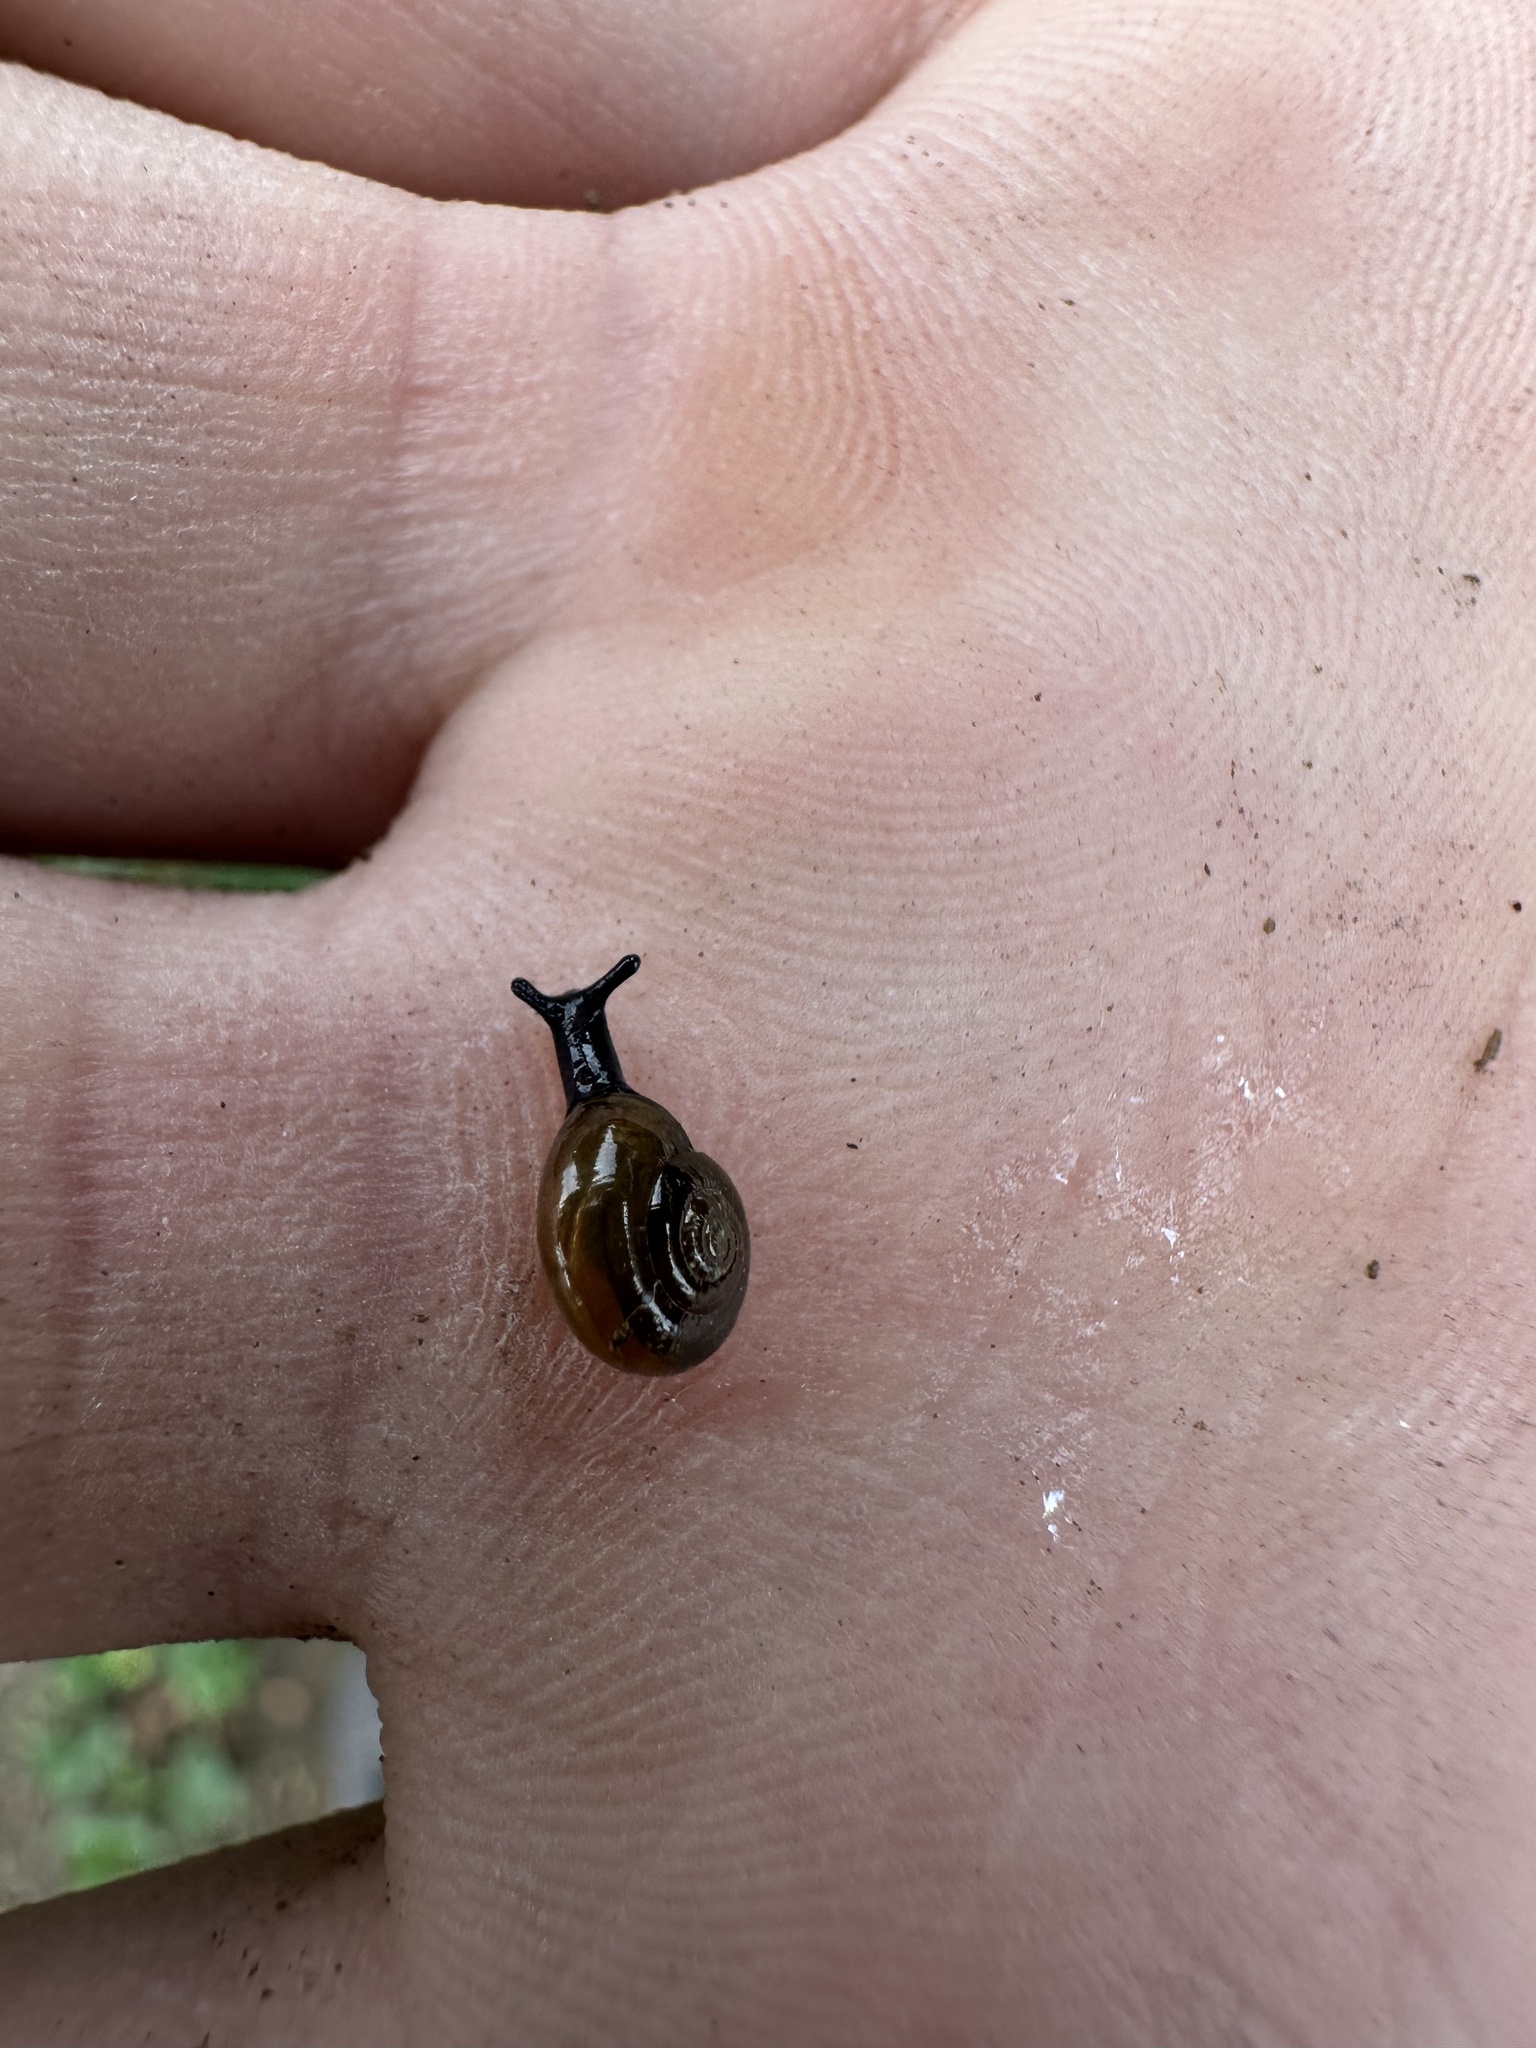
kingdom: Animalia
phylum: Mollusca
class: Gastropoda
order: Stylommatophora
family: Oxychilidae
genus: Oxychilus
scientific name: Oxychilus alliarius
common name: Garlic glass-snail
